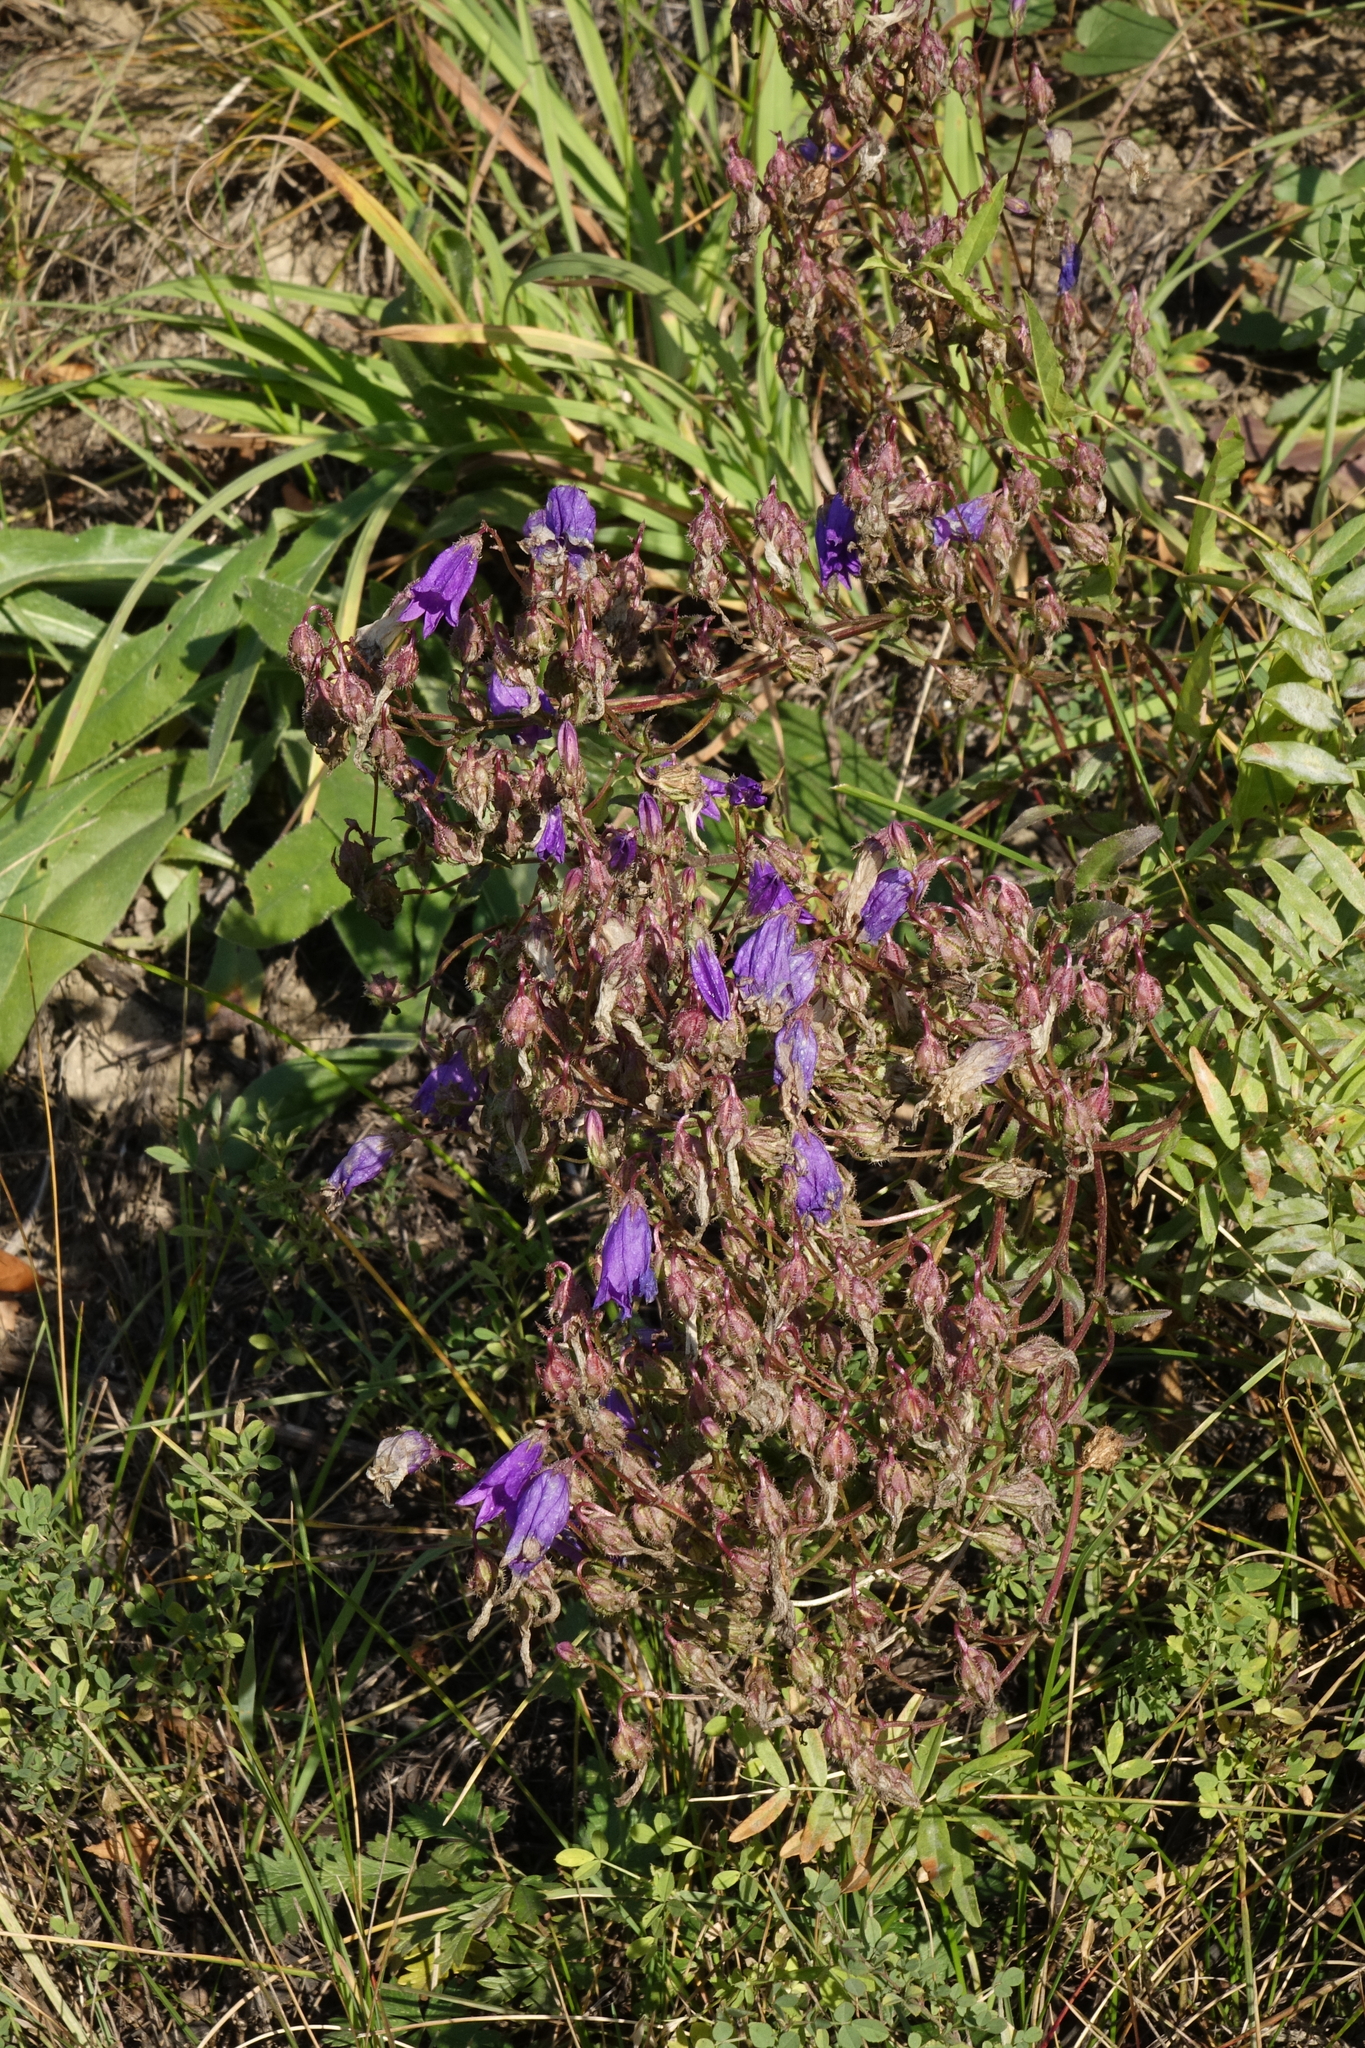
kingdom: Plantae
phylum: Tracheophyta
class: Magnoliopsida
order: Asterales
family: Campanulaceae
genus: Campanula
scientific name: Campanula sibirica
